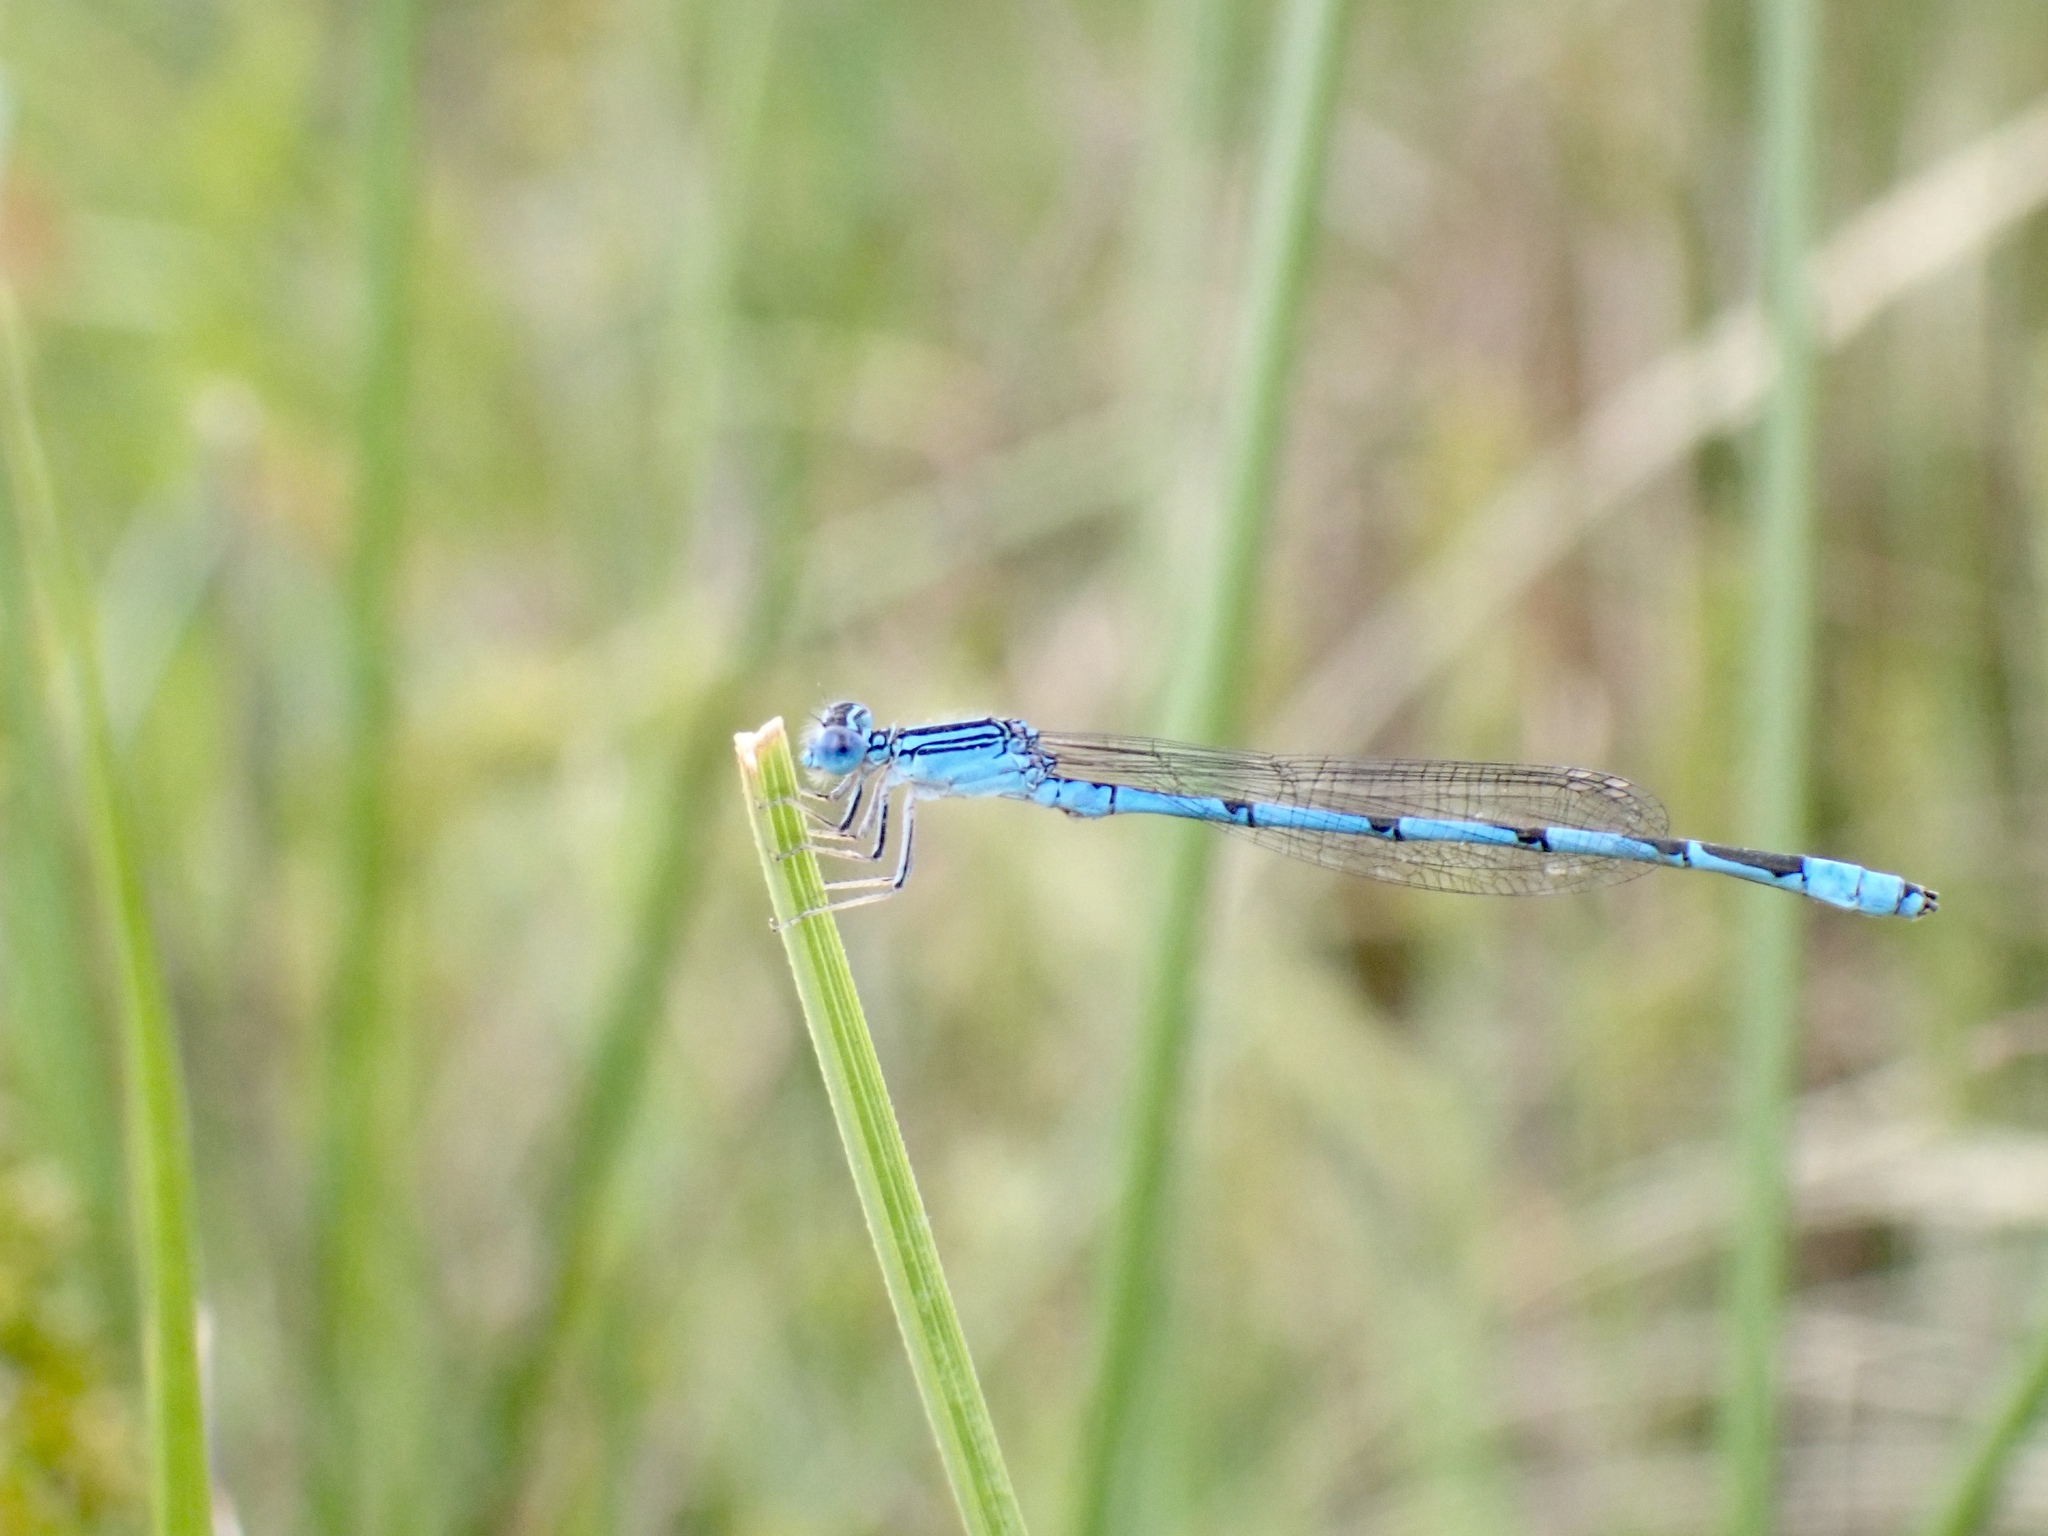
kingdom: Animalia
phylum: Arthropoda
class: Insecta
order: Odonata
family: Coenagrionidae
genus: Enallagma
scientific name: Enallagma basidens
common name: Double-striped bluet
